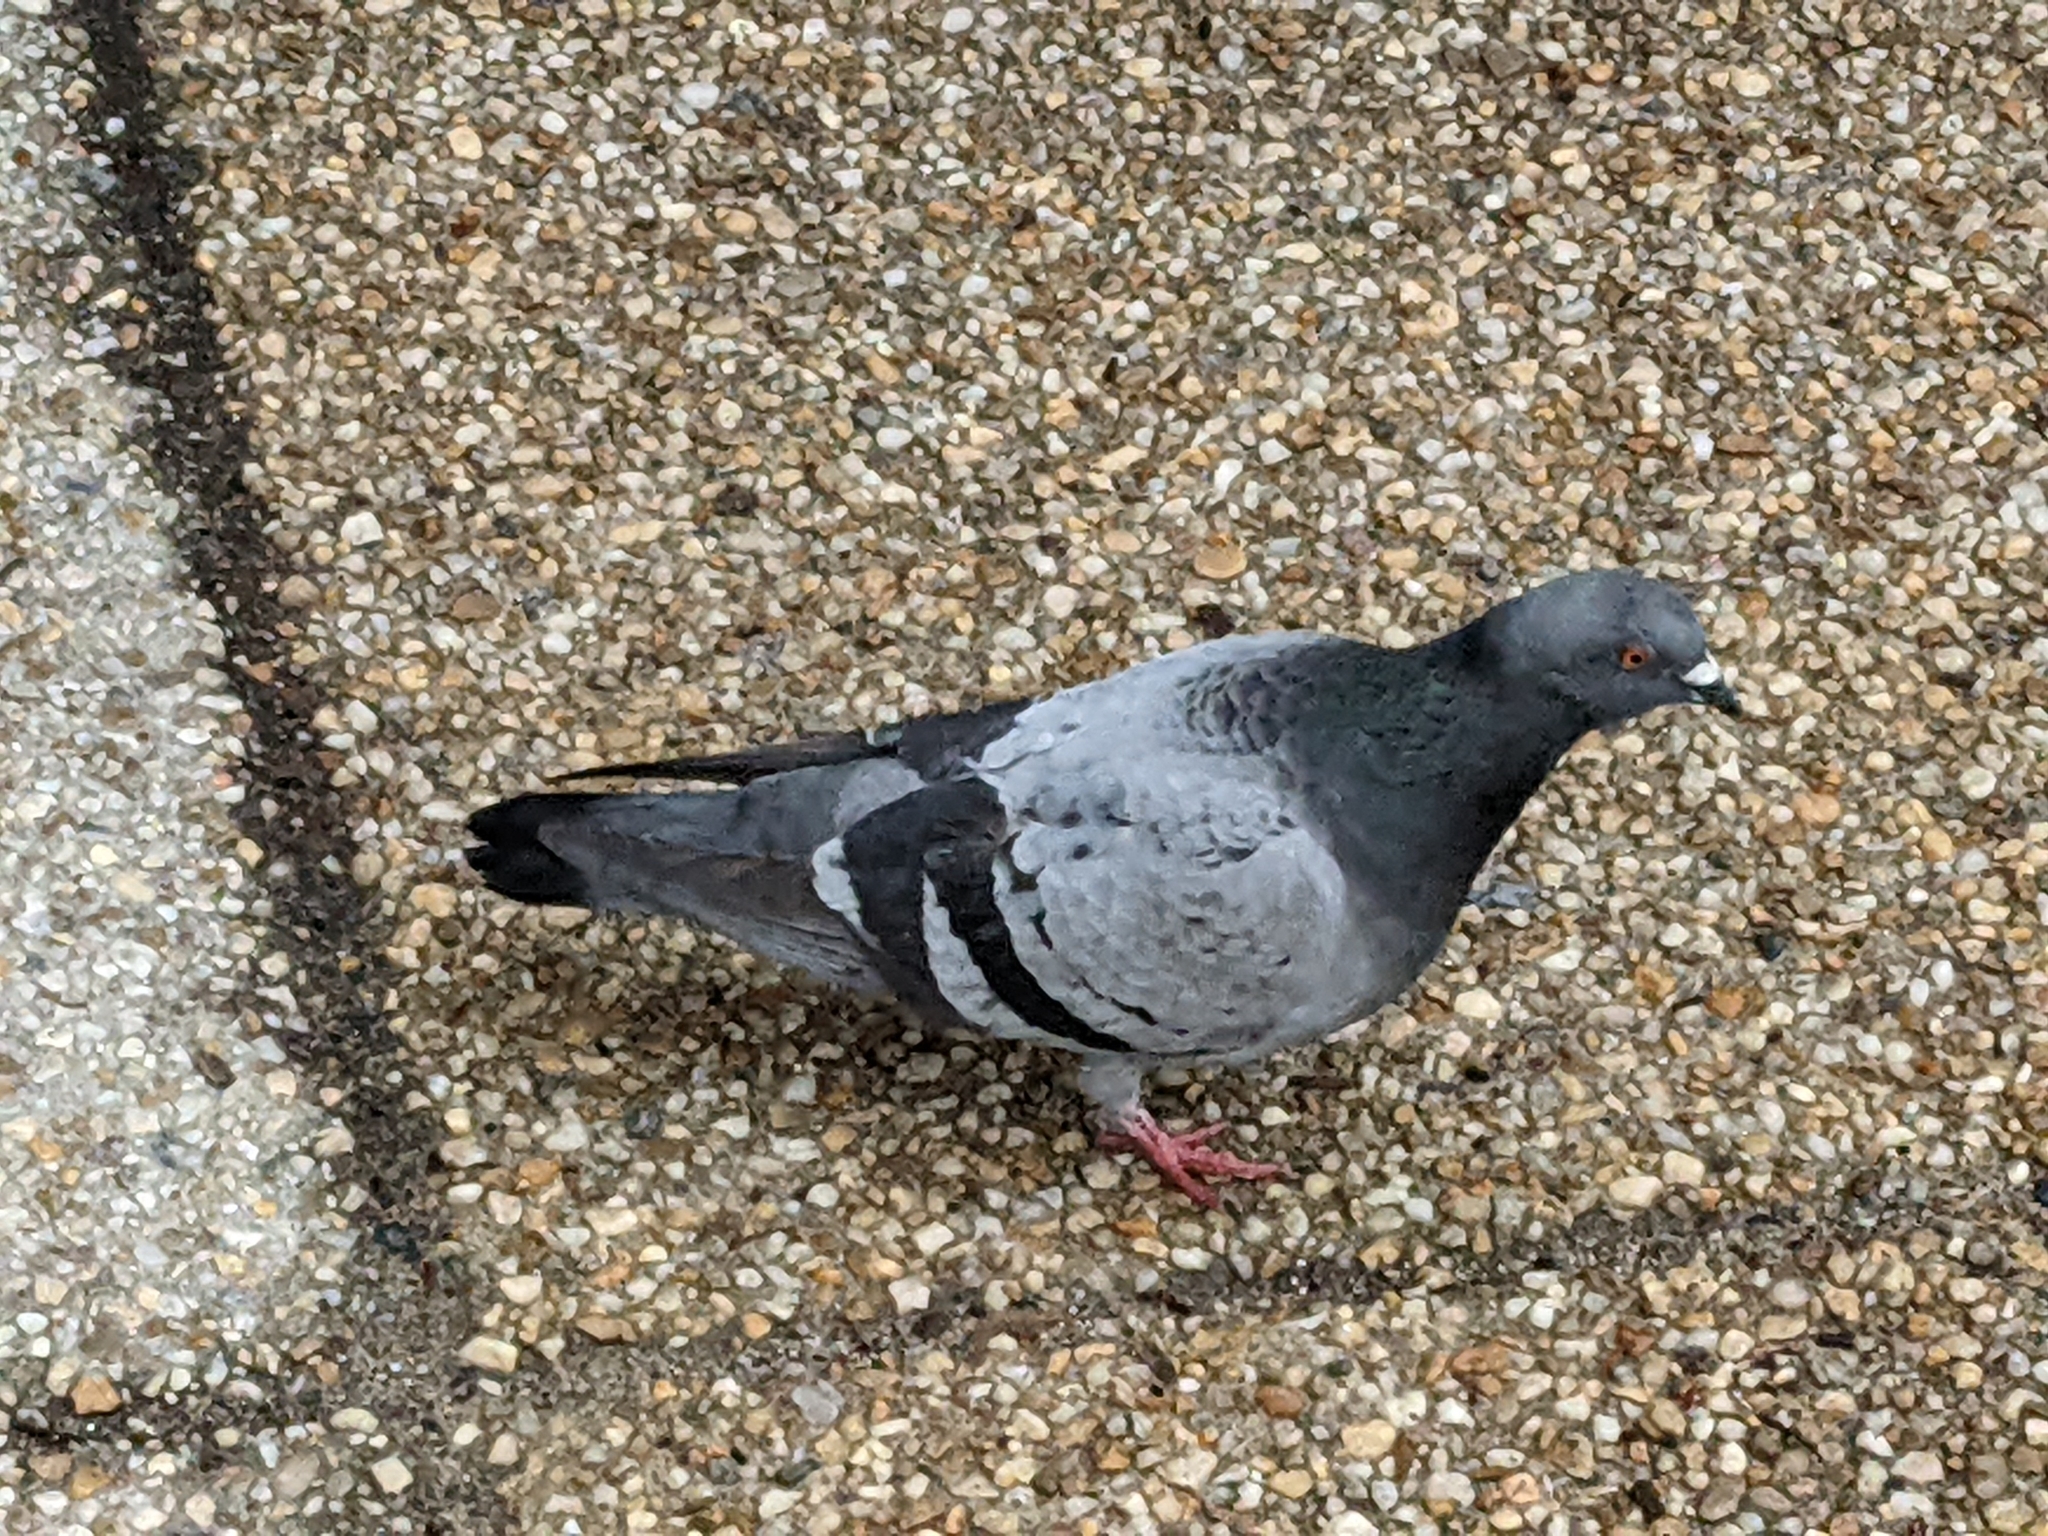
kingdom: Animalia
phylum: Chordata
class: Aves
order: Columbiformes
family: Columbidae
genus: Columba
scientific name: Columba livia
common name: Rock pigeon
